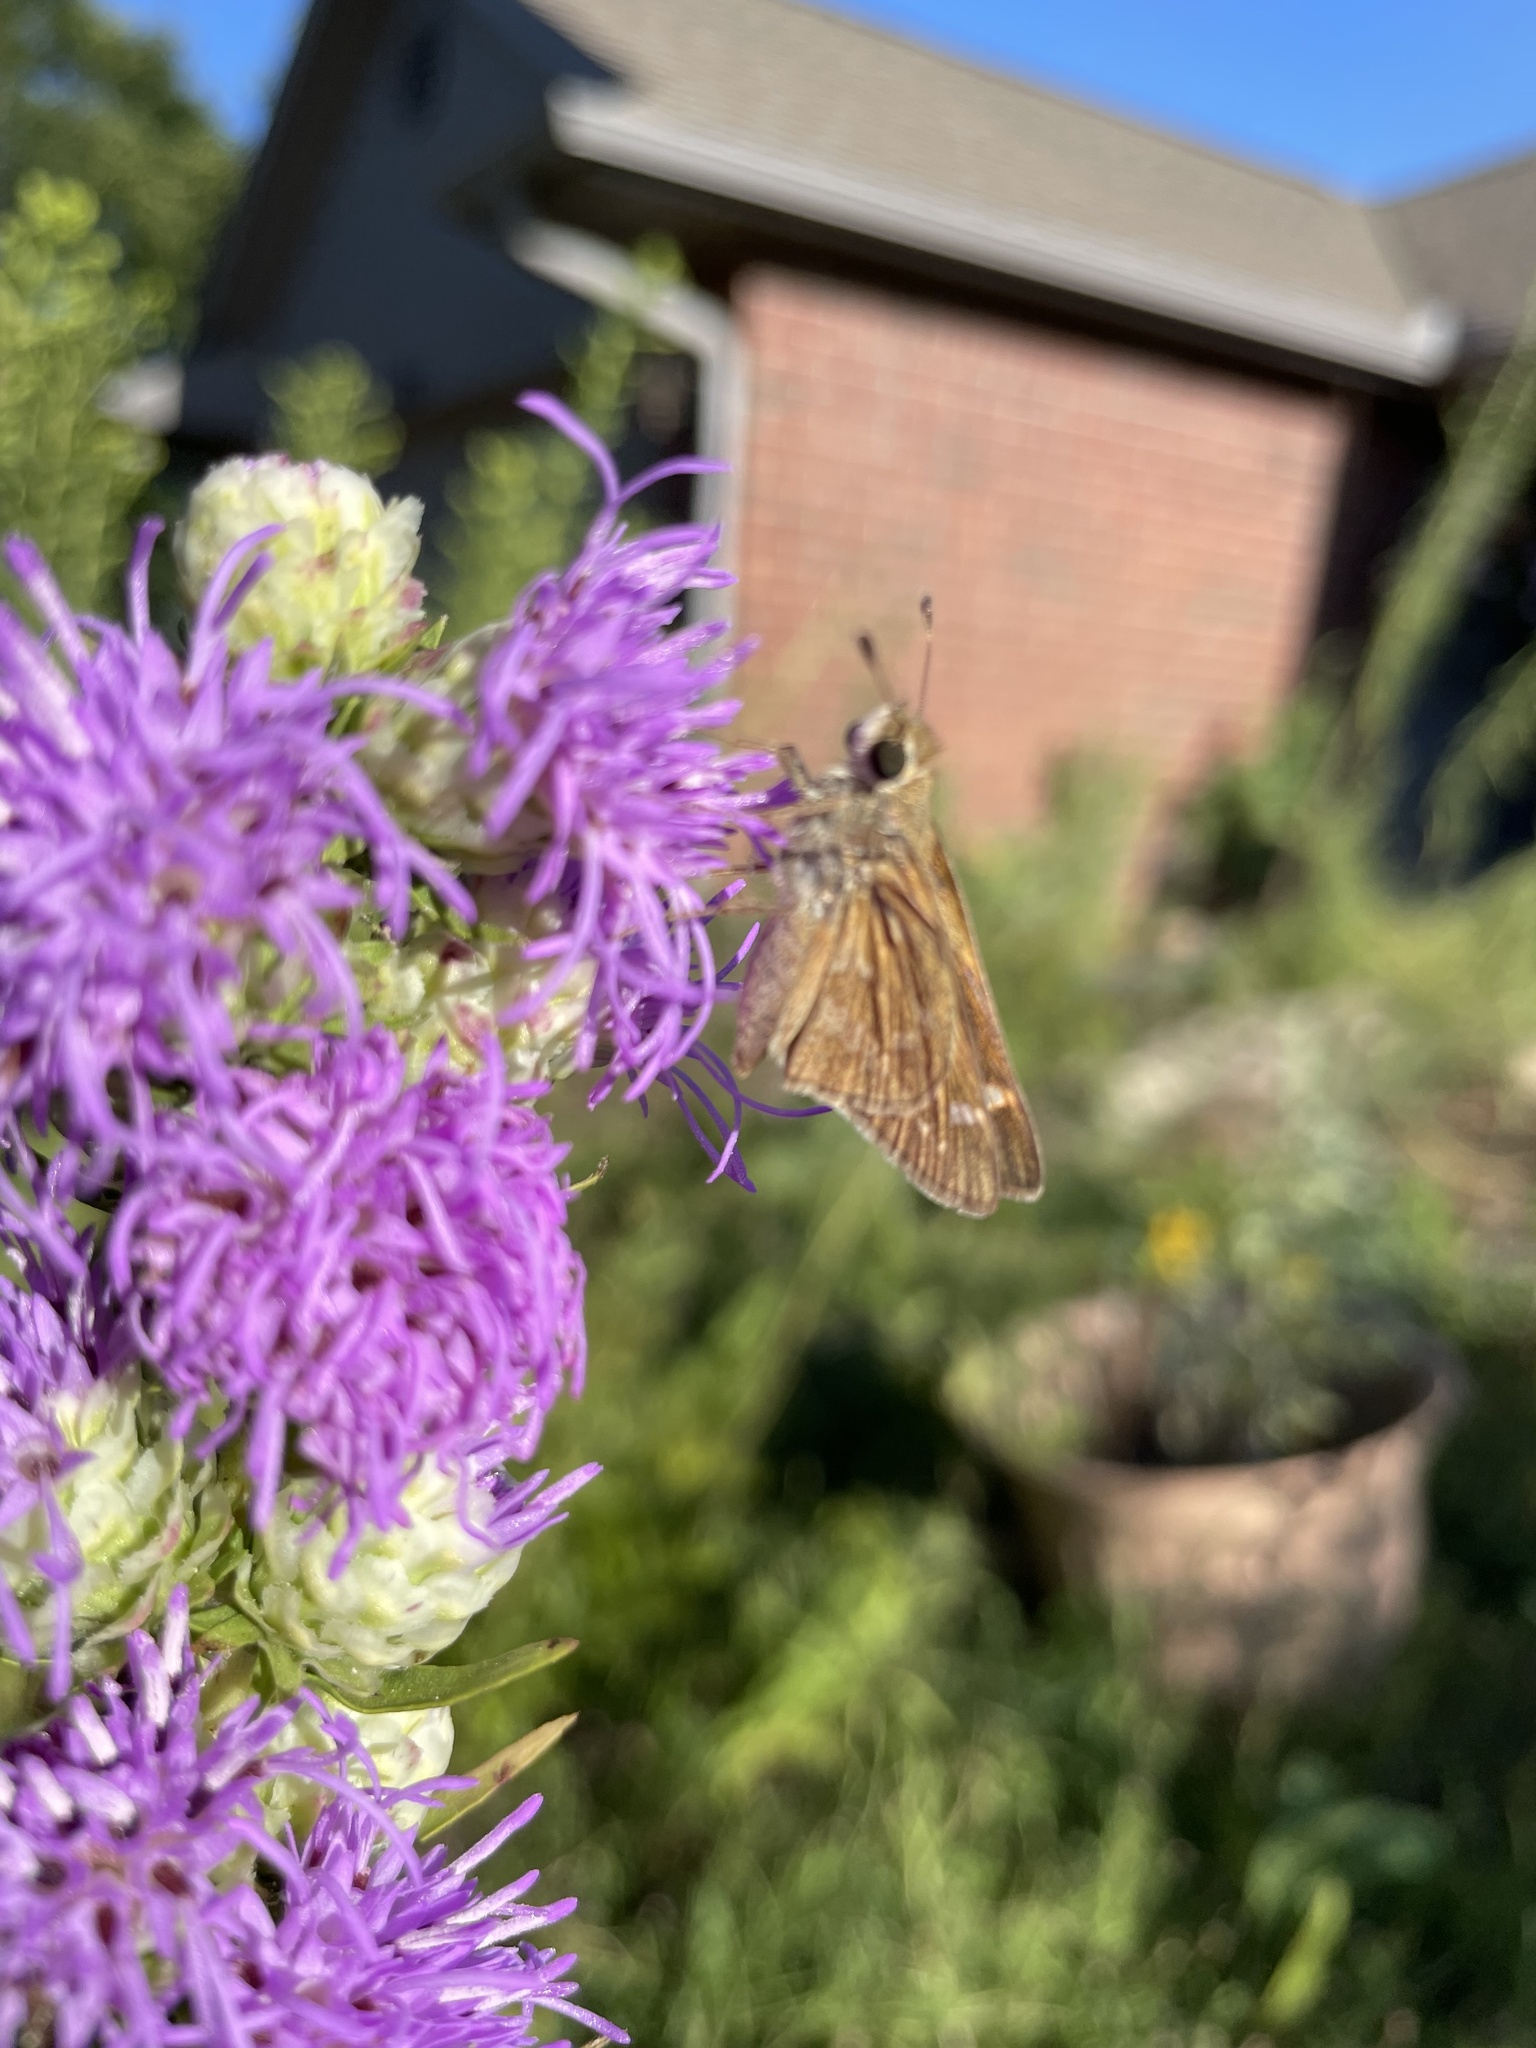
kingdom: Animalia
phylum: Arthropoda
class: Insecta
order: Lepidoptera
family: Hesperiidae
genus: Atalopedes
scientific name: Atalopedes
